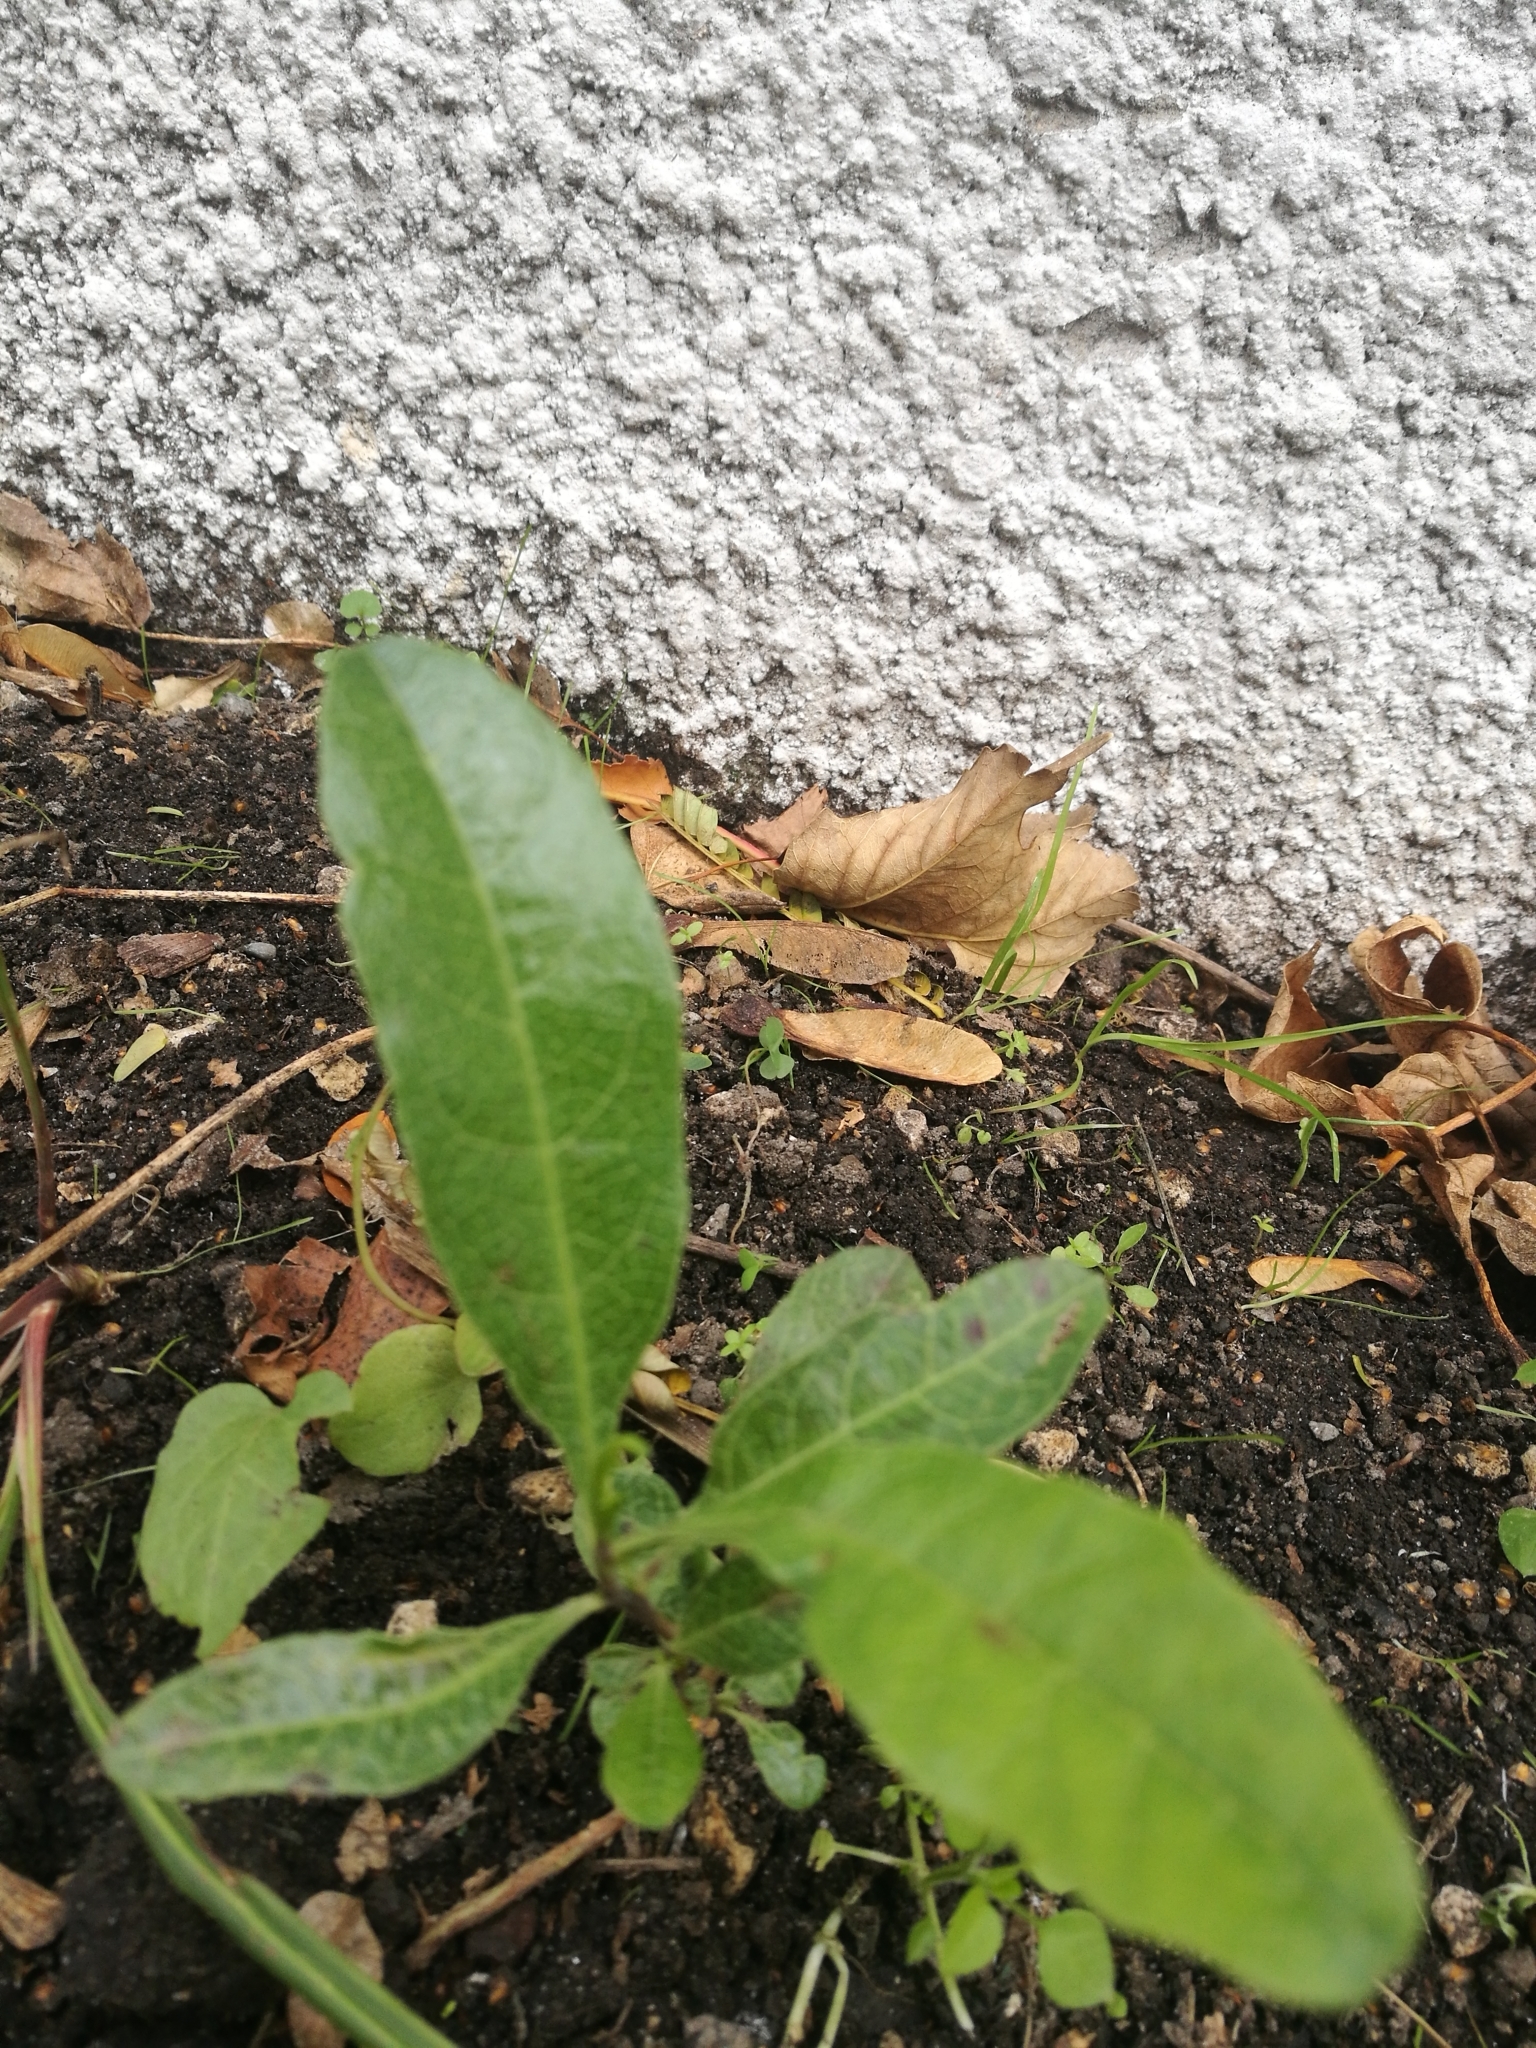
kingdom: Plantae
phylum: Tracheophyta
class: Magnoliopsida
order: Sapindales
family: Sapindaceae
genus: Dodonaea
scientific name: Dodonaea viscosa
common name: Hopbush
